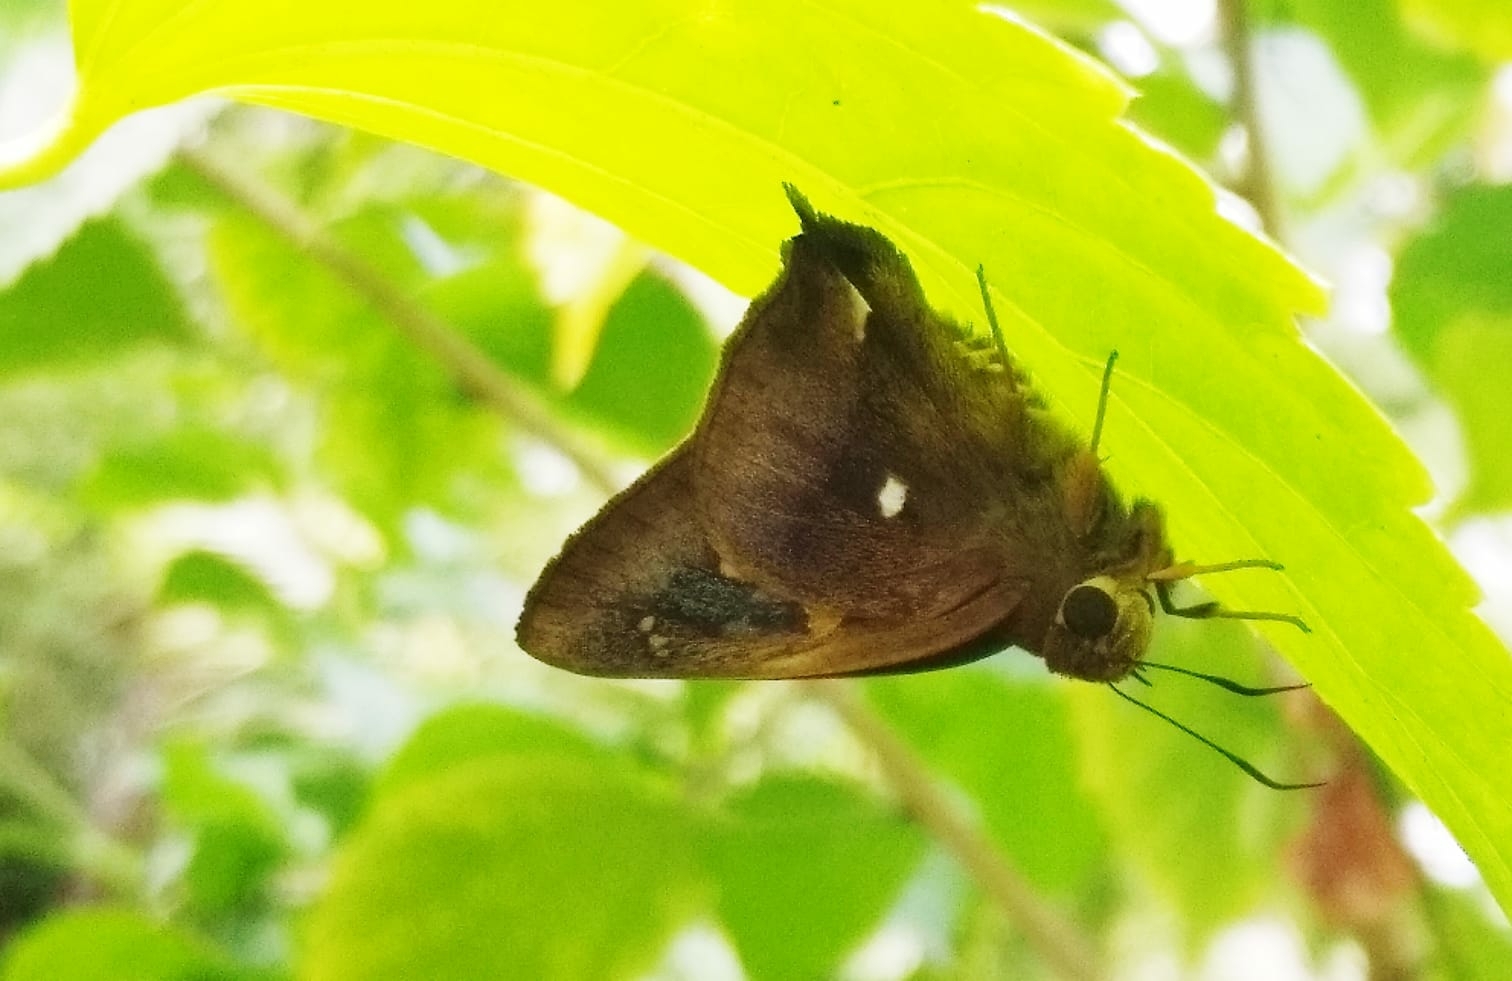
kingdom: Animalia
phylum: Arthropoda
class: Insecta
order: Lepidoptera
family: Hesperiidae
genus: Hasora
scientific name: Hasora badra
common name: Common awl
